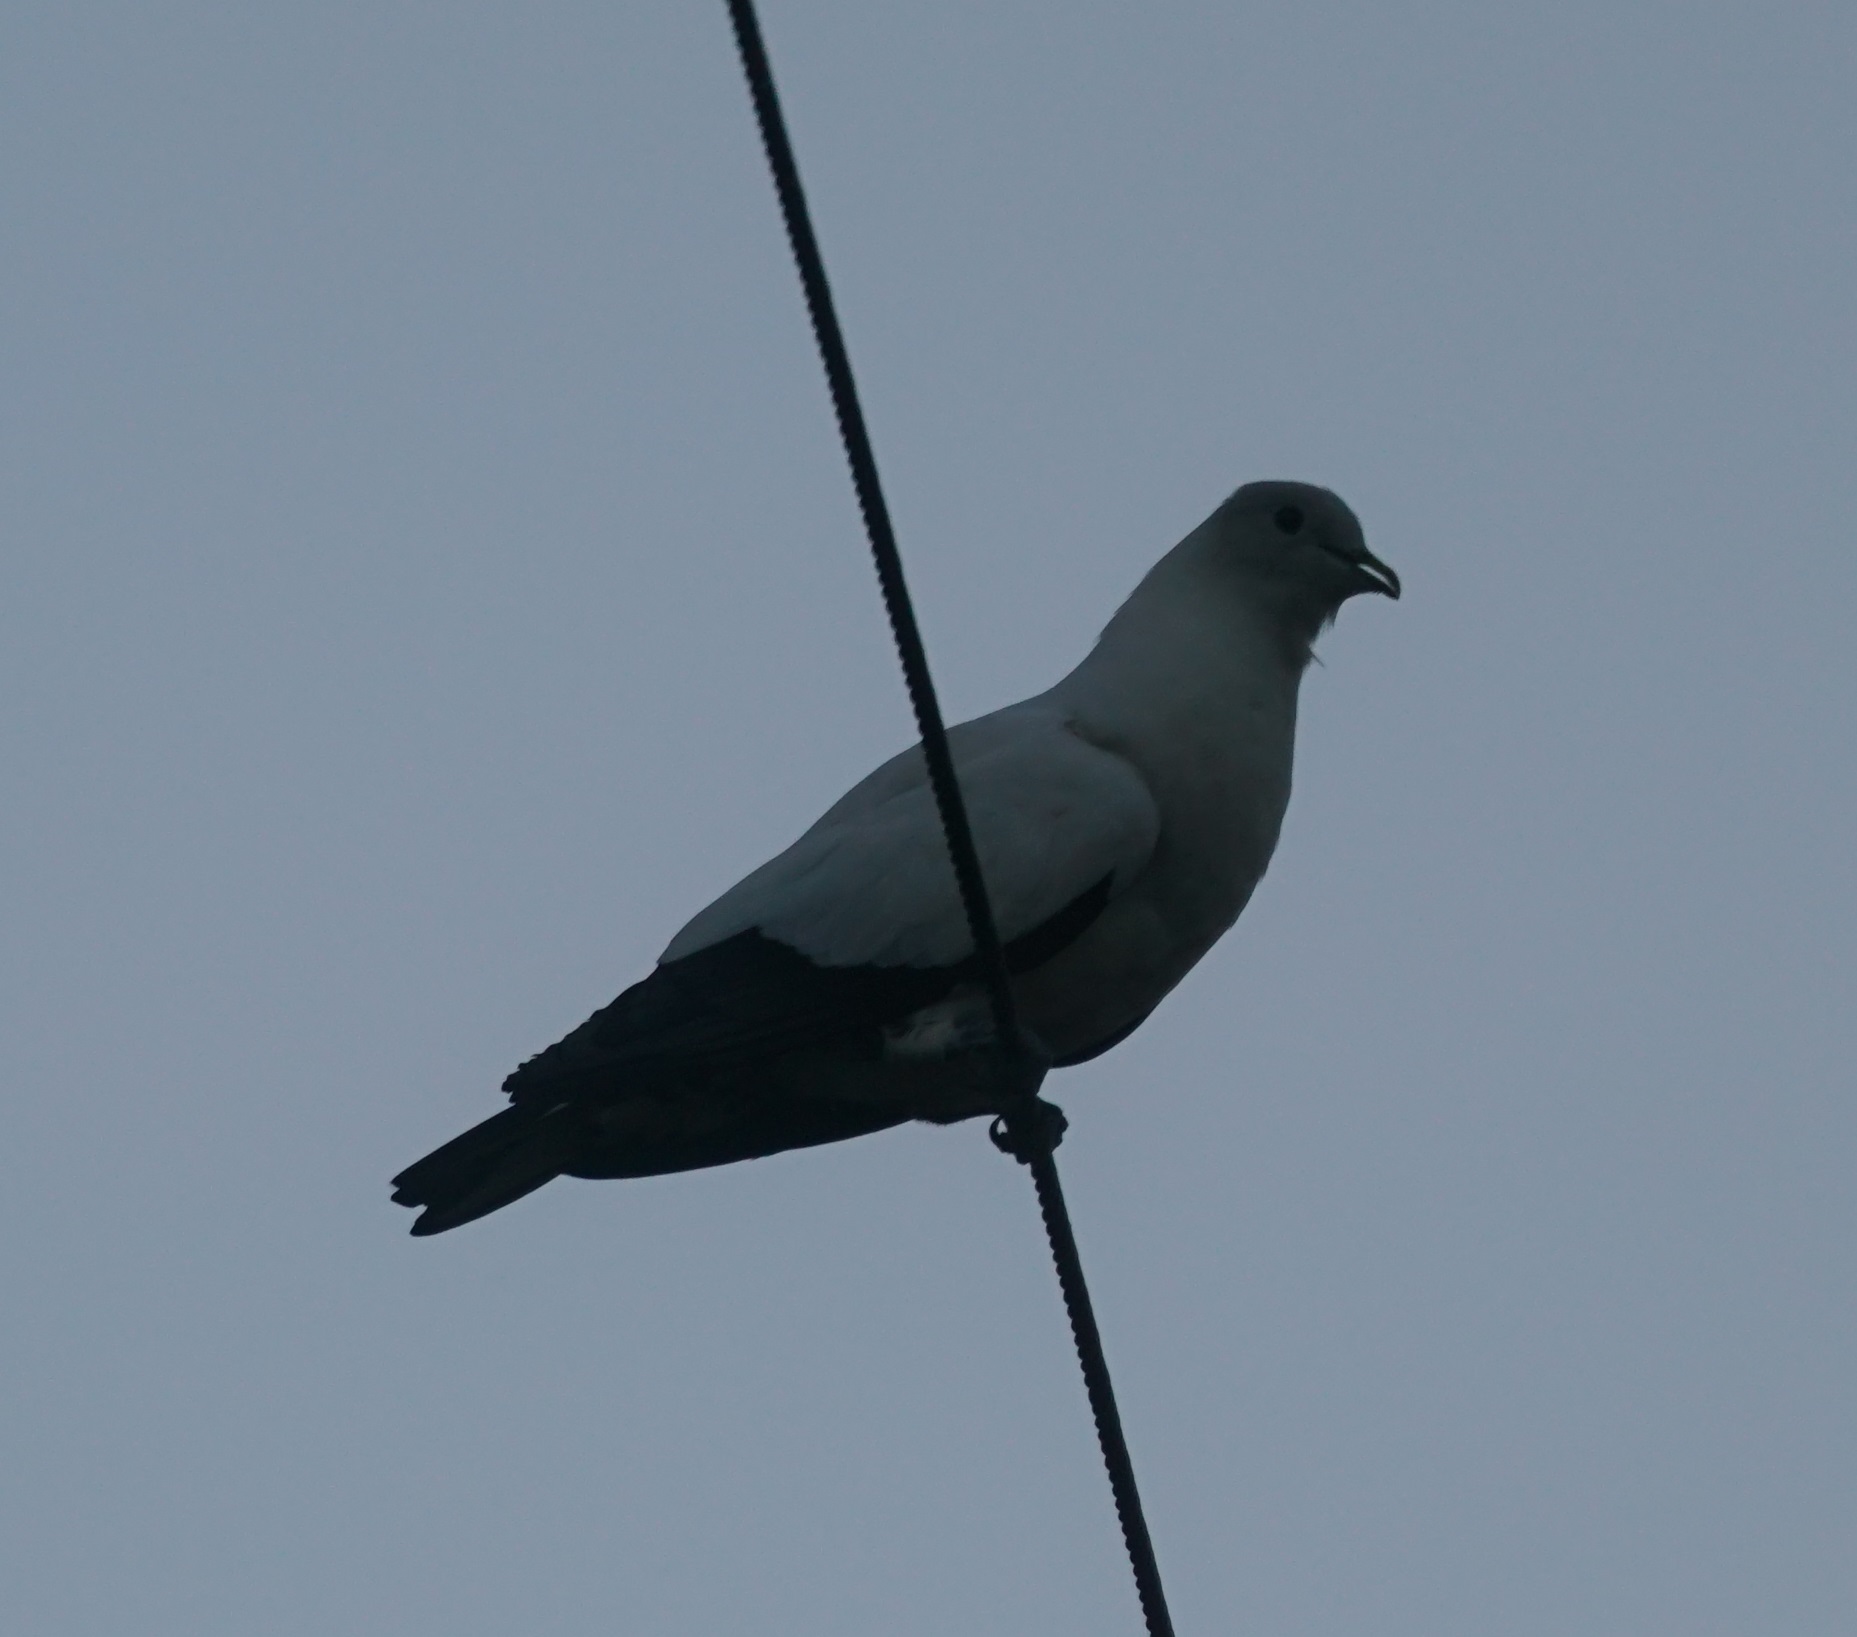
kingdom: Animalia
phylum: Chordata
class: Aves
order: Columbiformes
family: Columbidae
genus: Ducula
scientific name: Ducula spilorrhoa
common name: Torresian imperial pigeon
